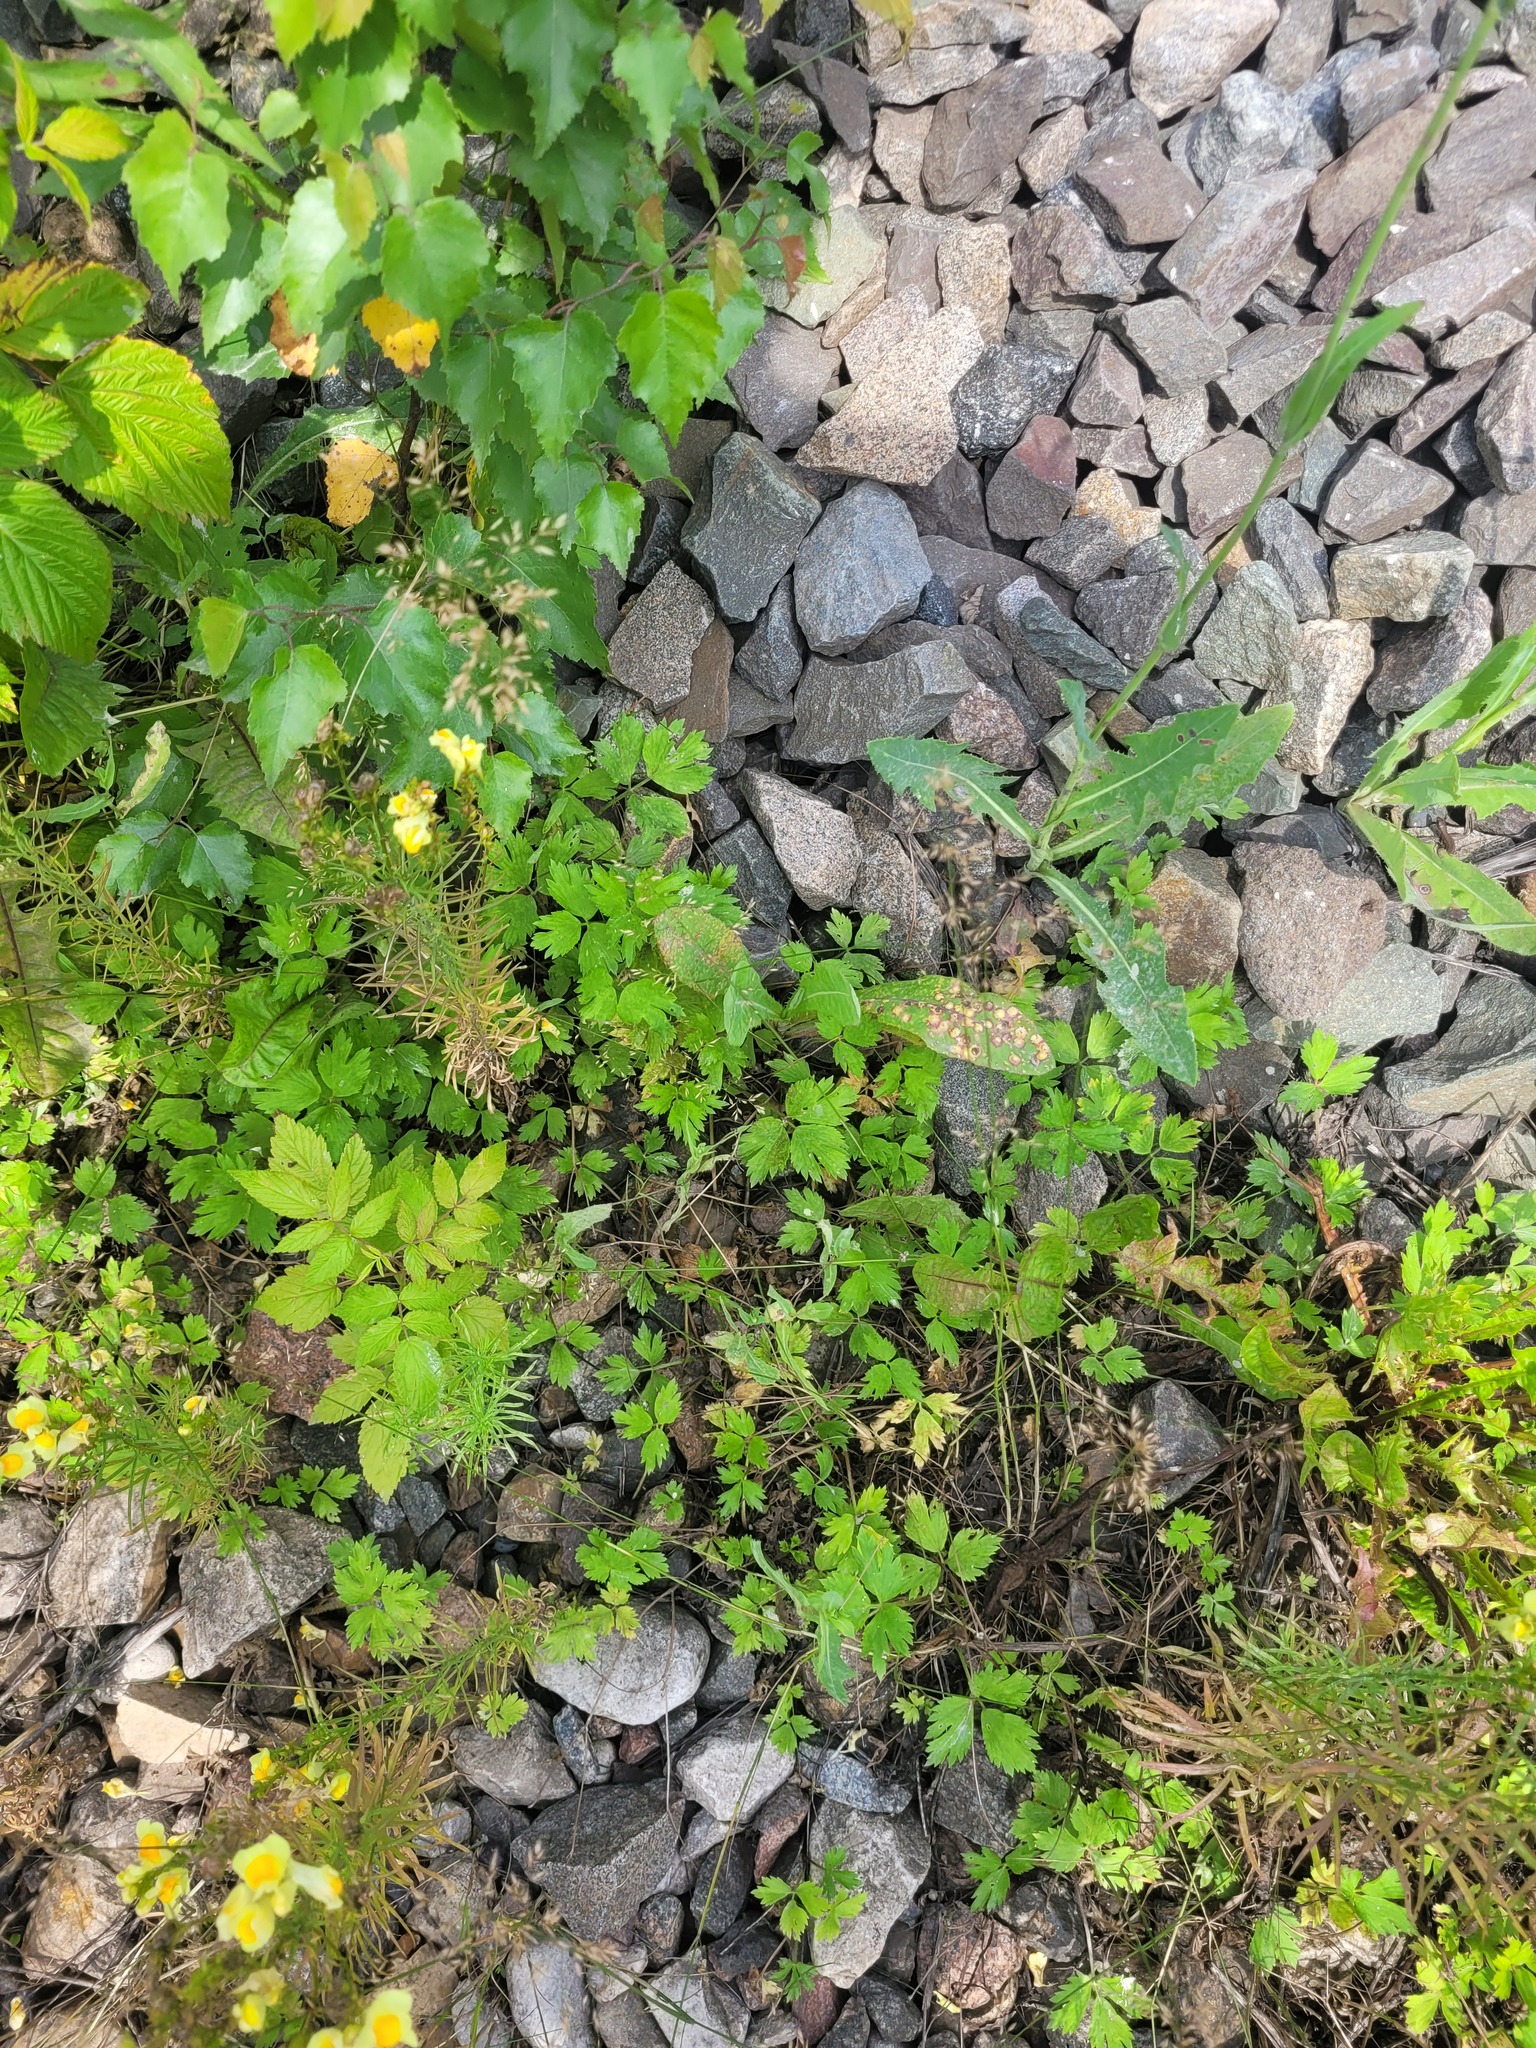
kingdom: Plantae
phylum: Tracheophyta
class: Magnoliopsida
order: Ranunculales
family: Ranunculaceae
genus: Ranunculus
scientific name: Ranunculus repens
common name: Creeping buttercup
